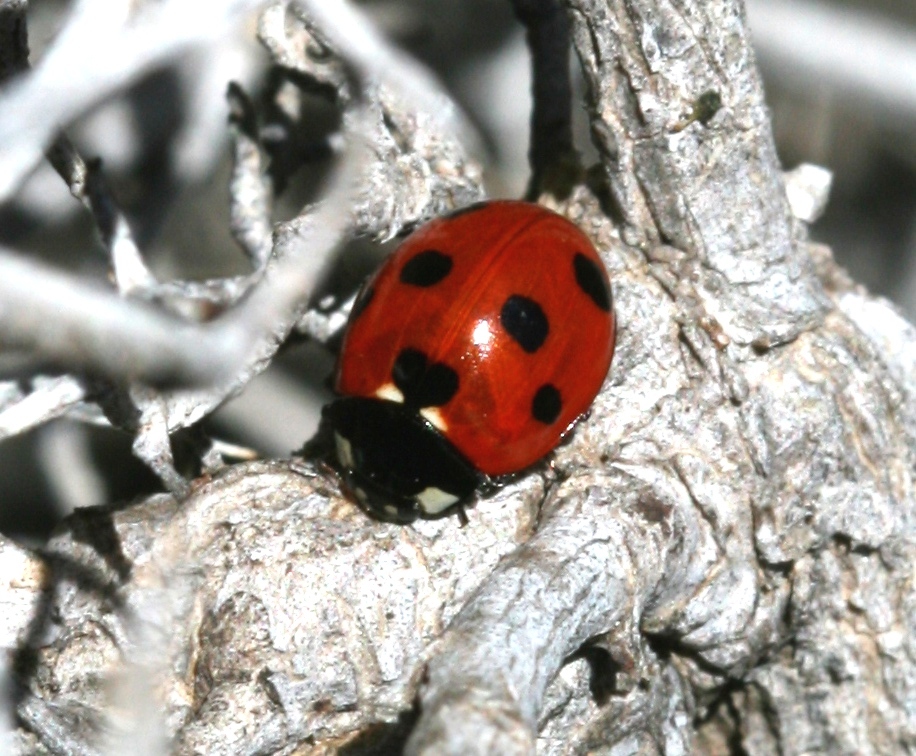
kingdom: Animalia
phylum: Arthropoda
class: Insecta
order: Coleoptera
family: Coccinellidae
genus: Coccinella
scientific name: Coccinella algerica
